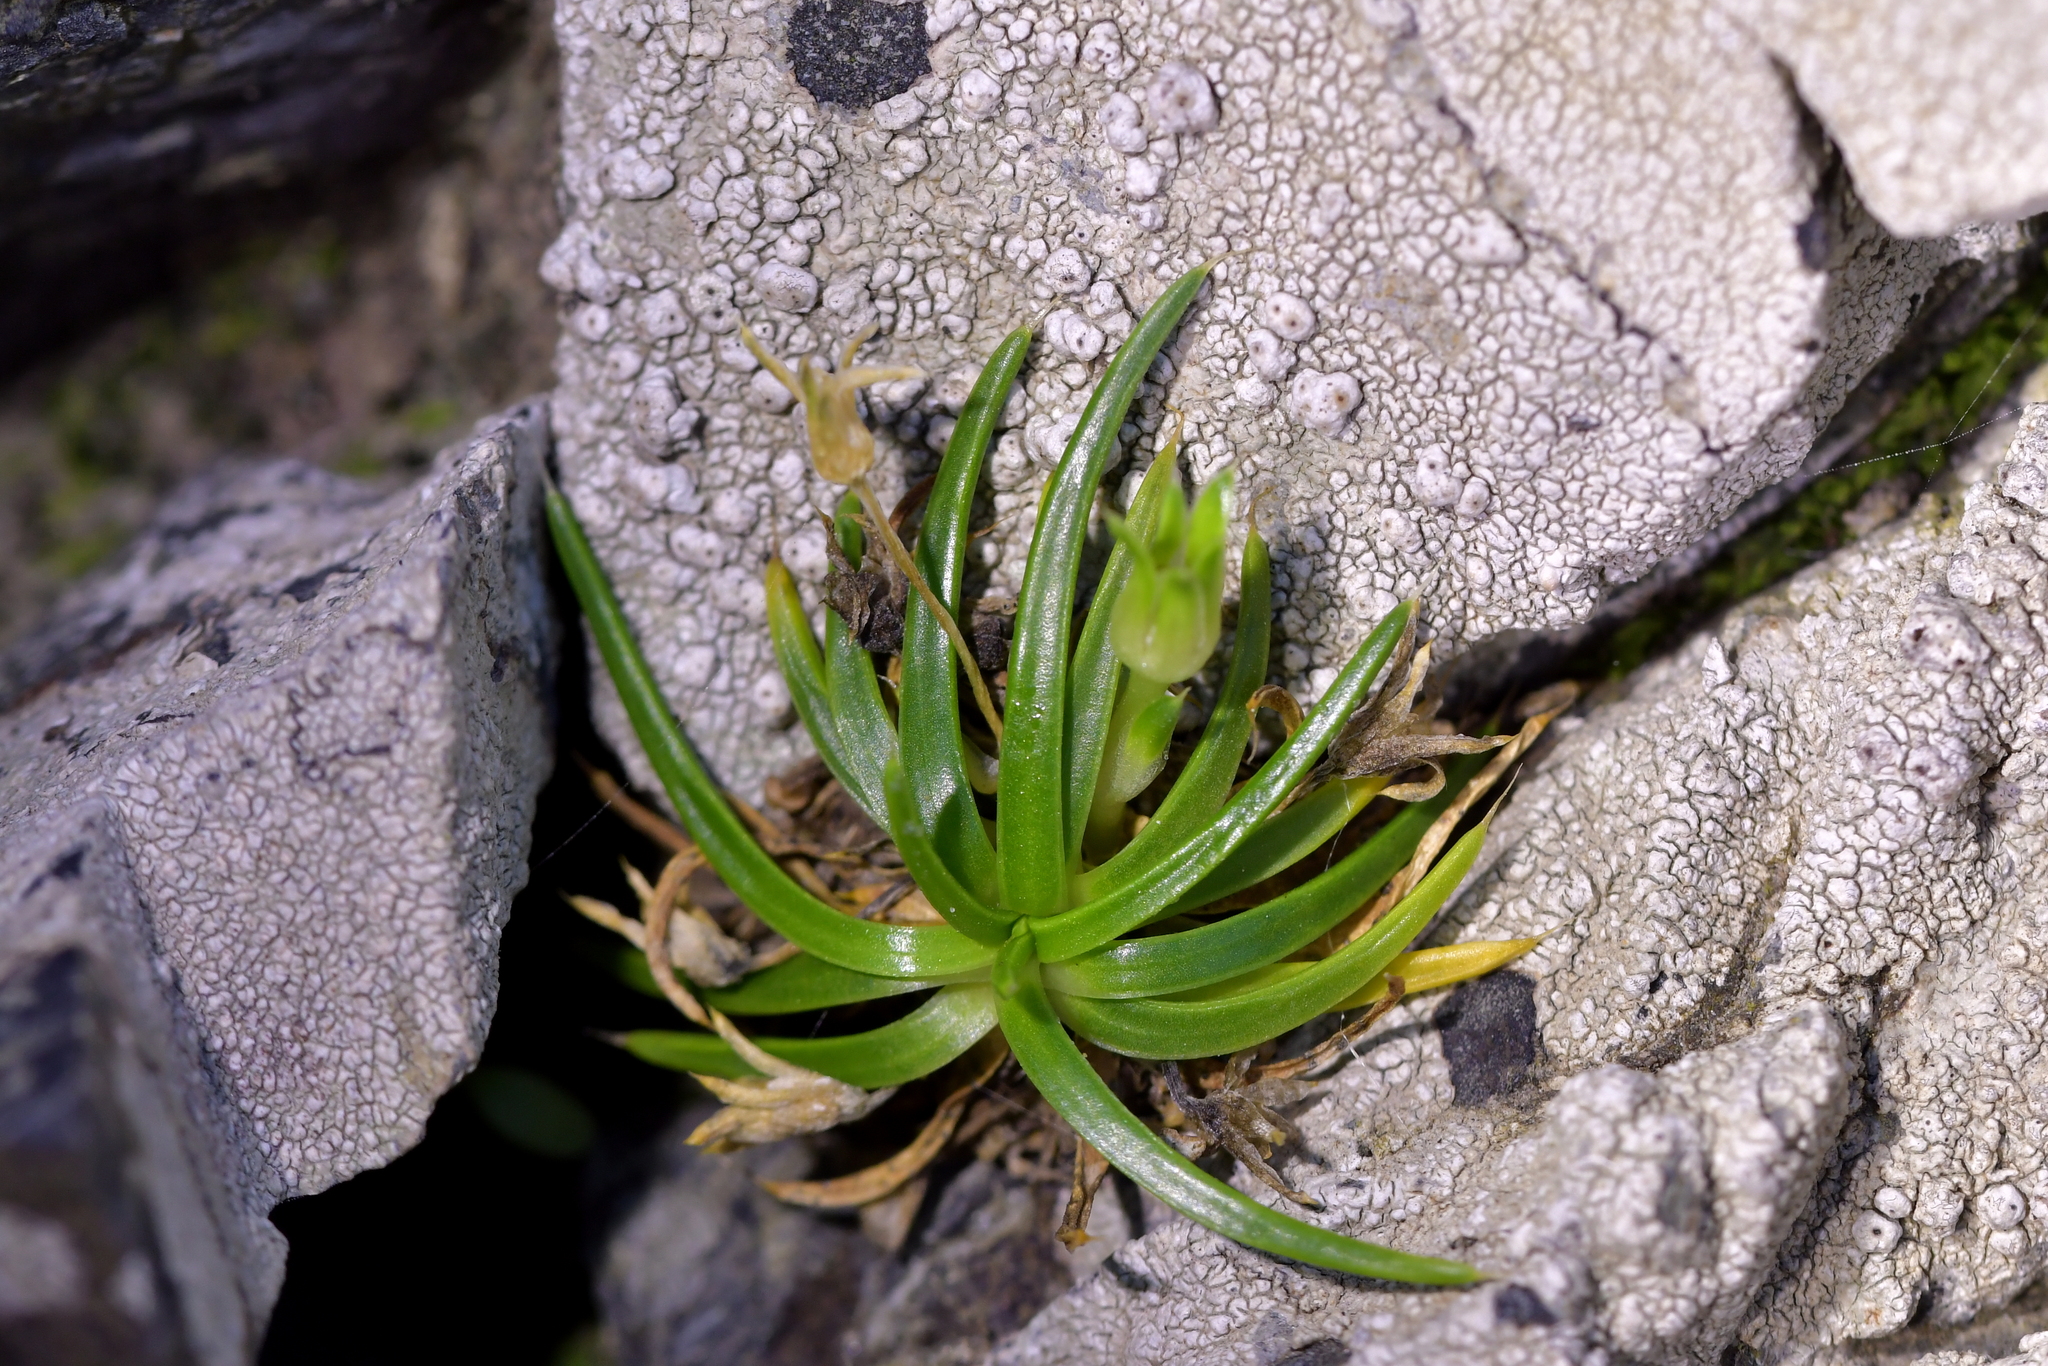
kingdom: Plantae
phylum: Tracheophyta
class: Magnoliopsida
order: Caryophyllales
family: Caryophyllaceae
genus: Colobanthus
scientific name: Colobanthus muelleri
